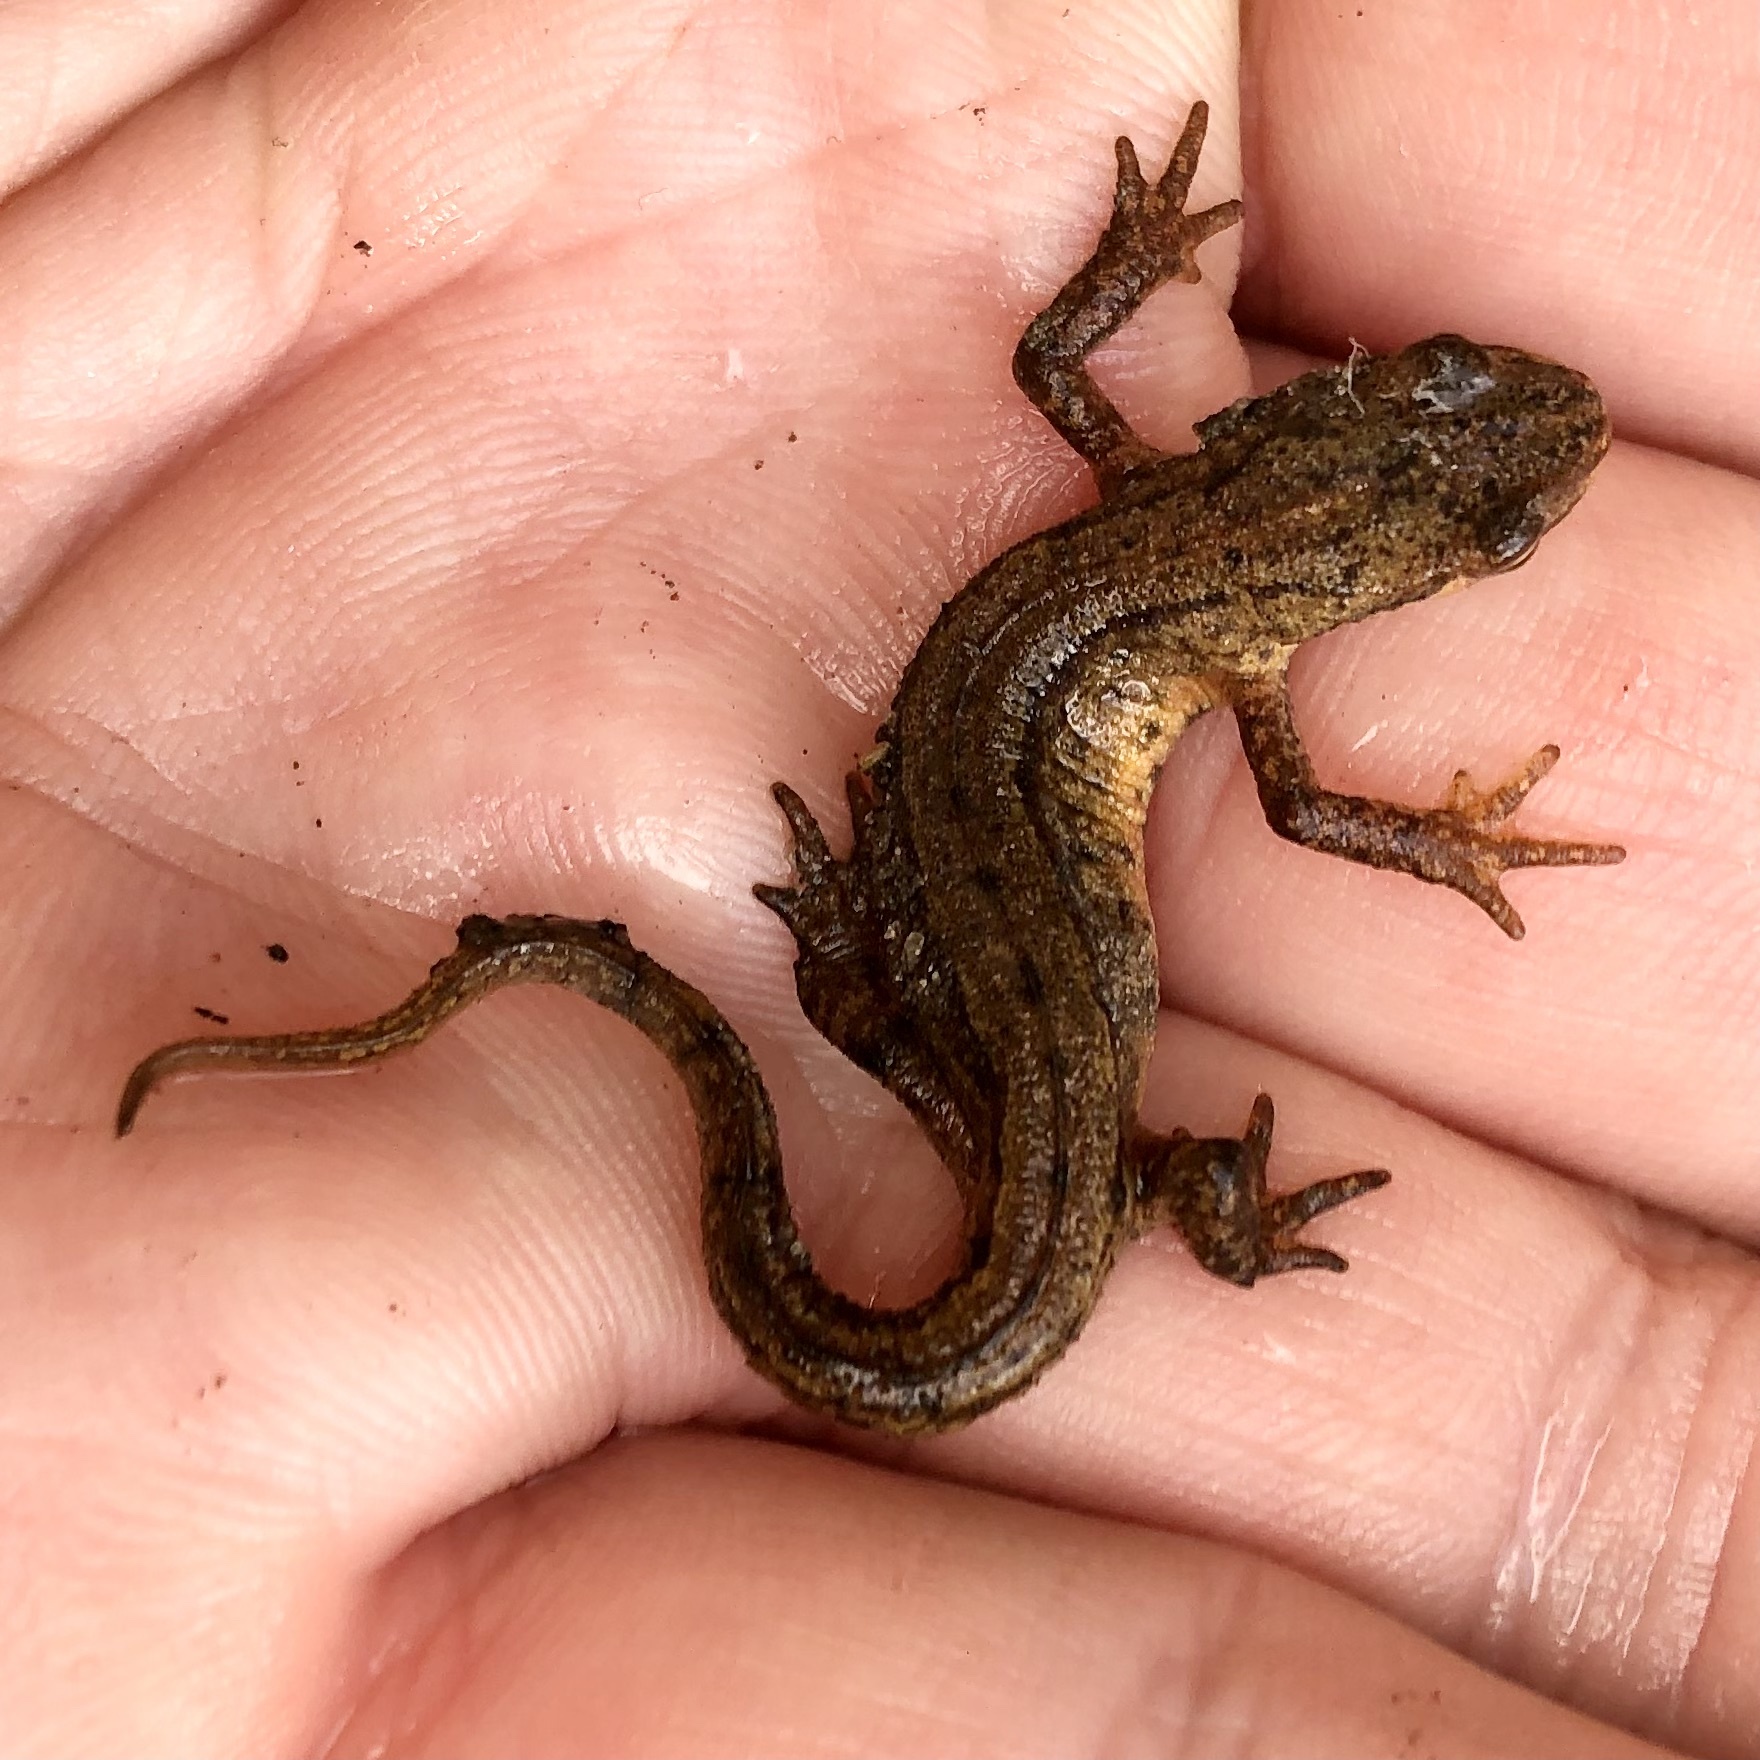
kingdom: Animalia
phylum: Chordata
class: Amphibia
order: Caudata
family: Salamandridae
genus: Lissotriton
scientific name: Lissotriton vulgaris
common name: Smooth newt
